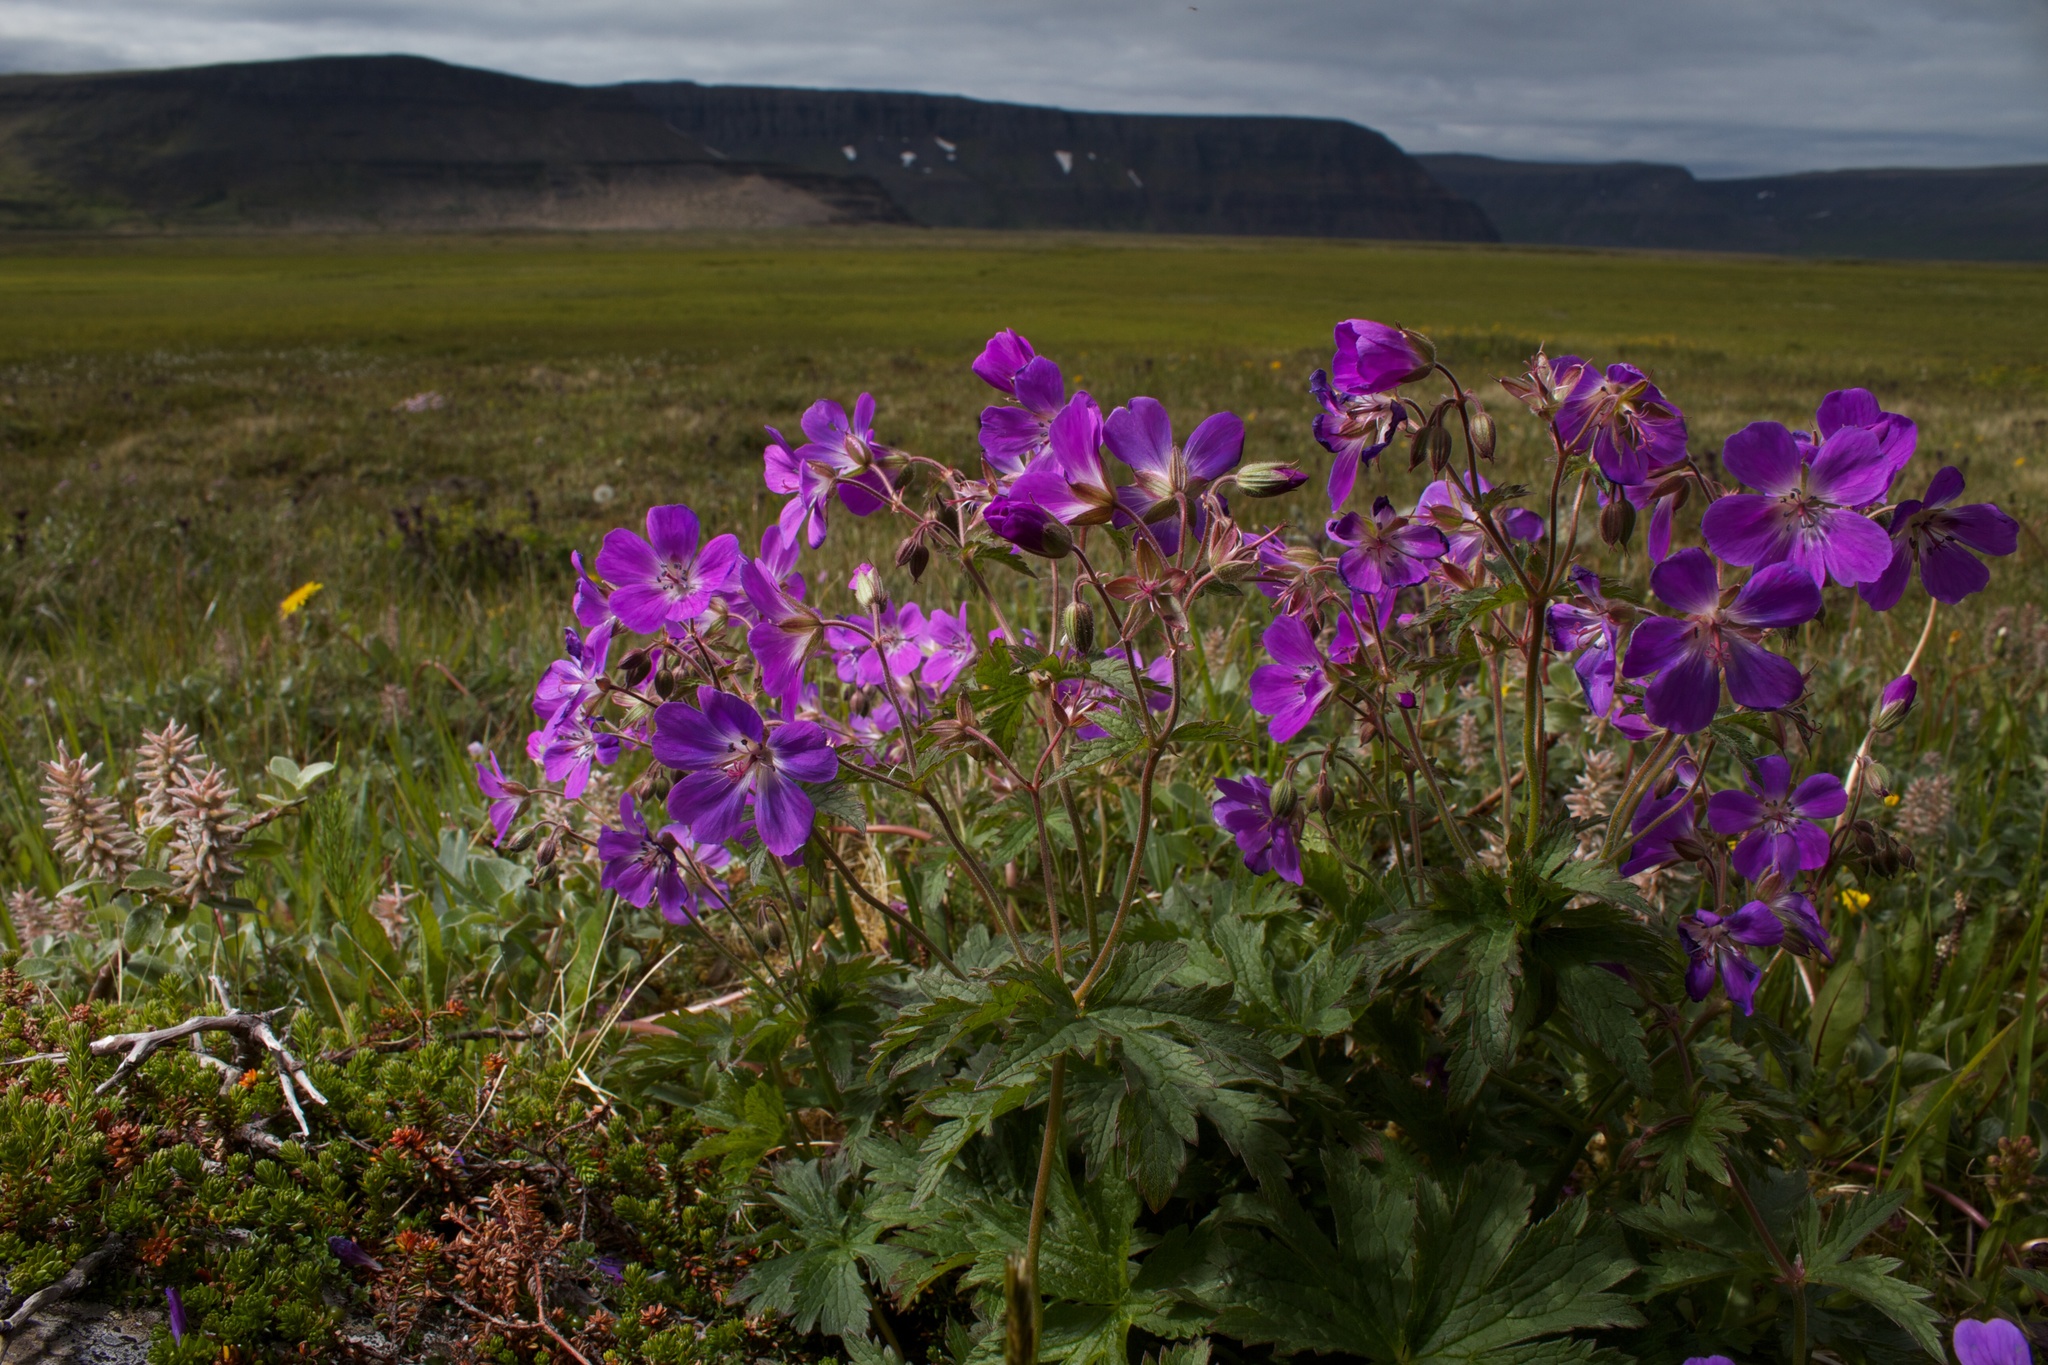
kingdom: Plantae
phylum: Tracheophyta
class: Magnoliopsida
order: Geraniales
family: Geraniaceae
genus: Geranium
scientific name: Geranium sylvaticum
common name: Wood crane's-bill
